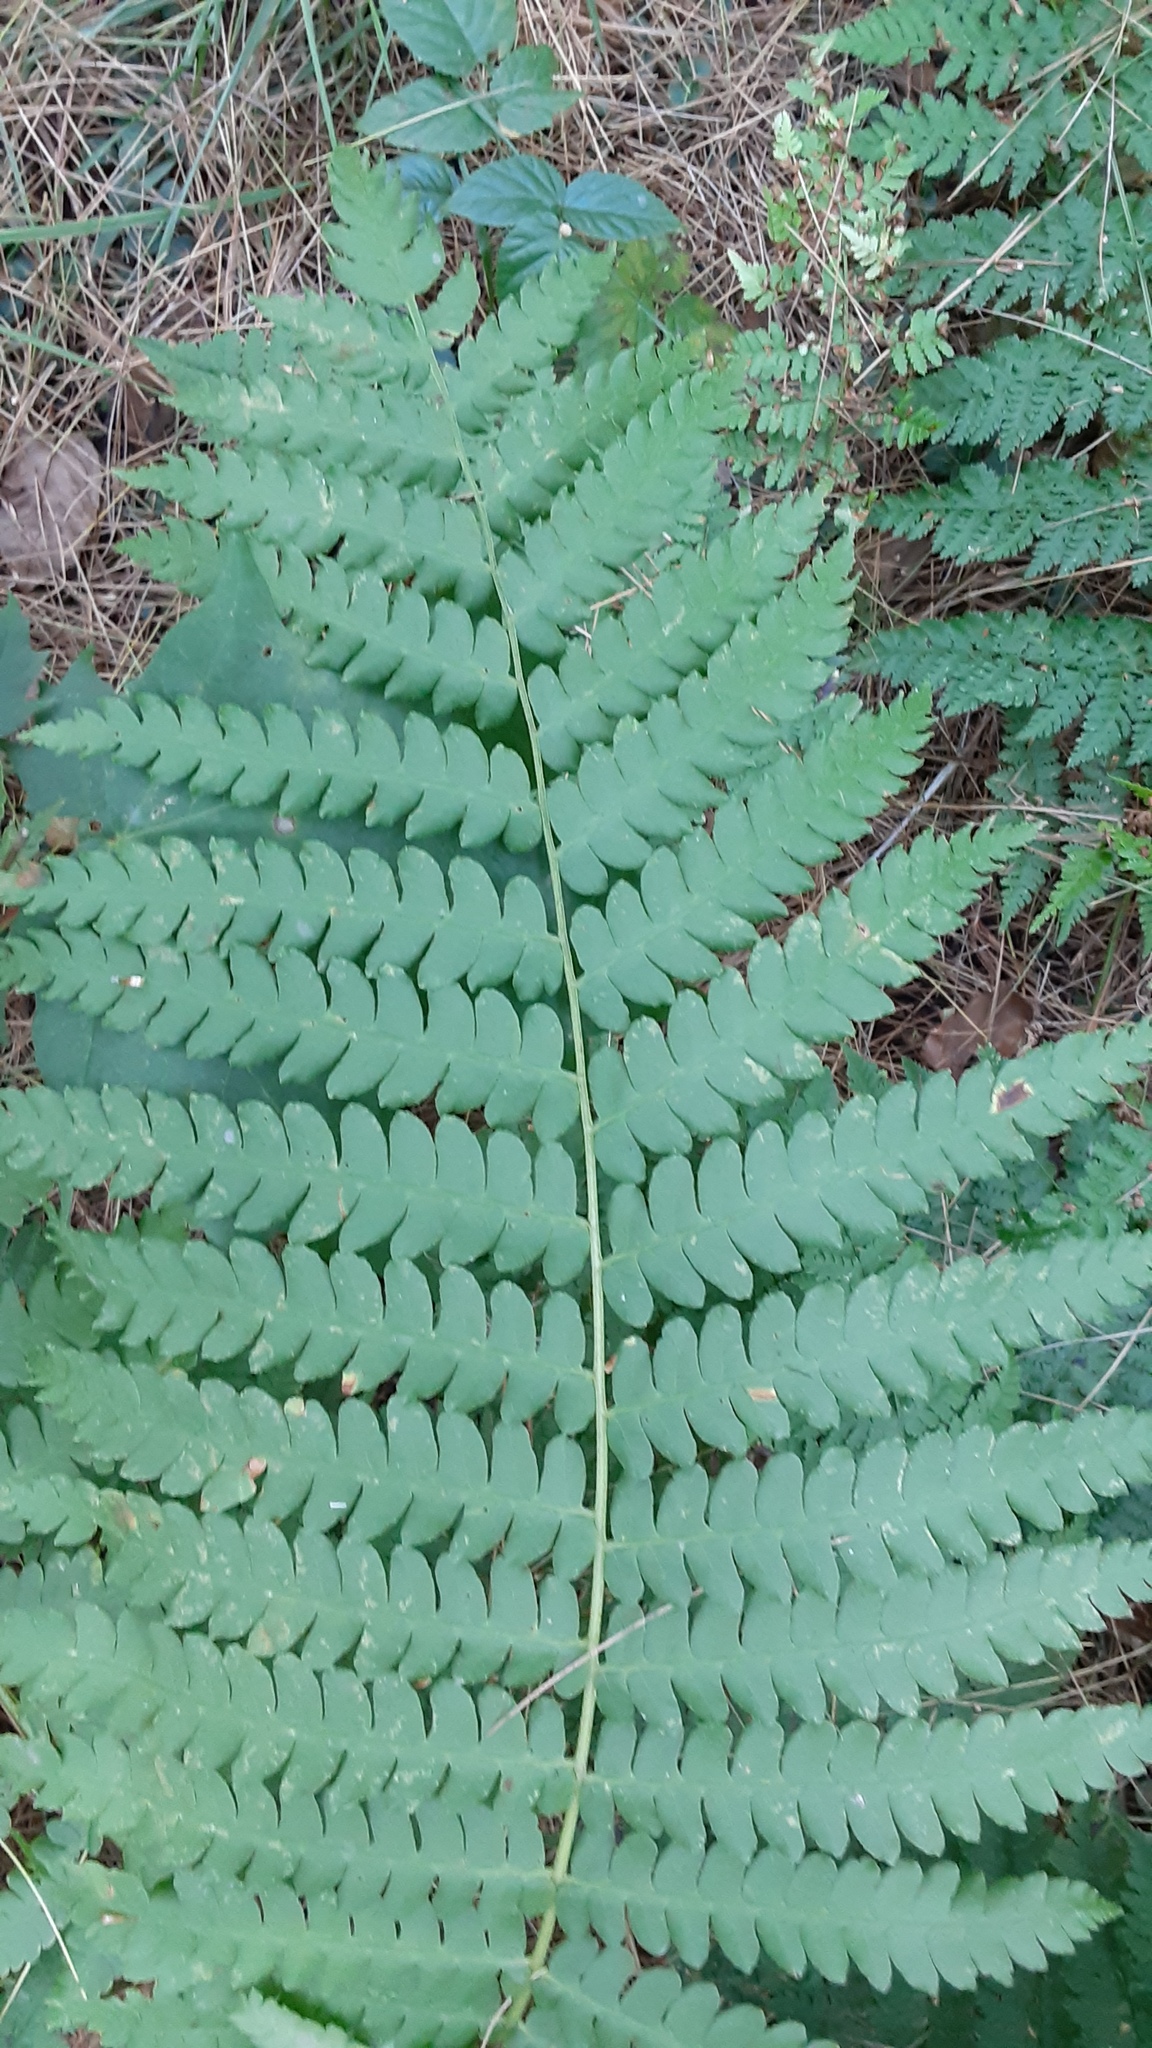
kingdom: Plantae
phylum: Tracheophyta
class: Polypodiopsida
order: Osmundales
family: Osmundaceae
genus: Osmundastrum
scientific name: Osmundastrum cinnamomeum
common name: Cinnamon fern
